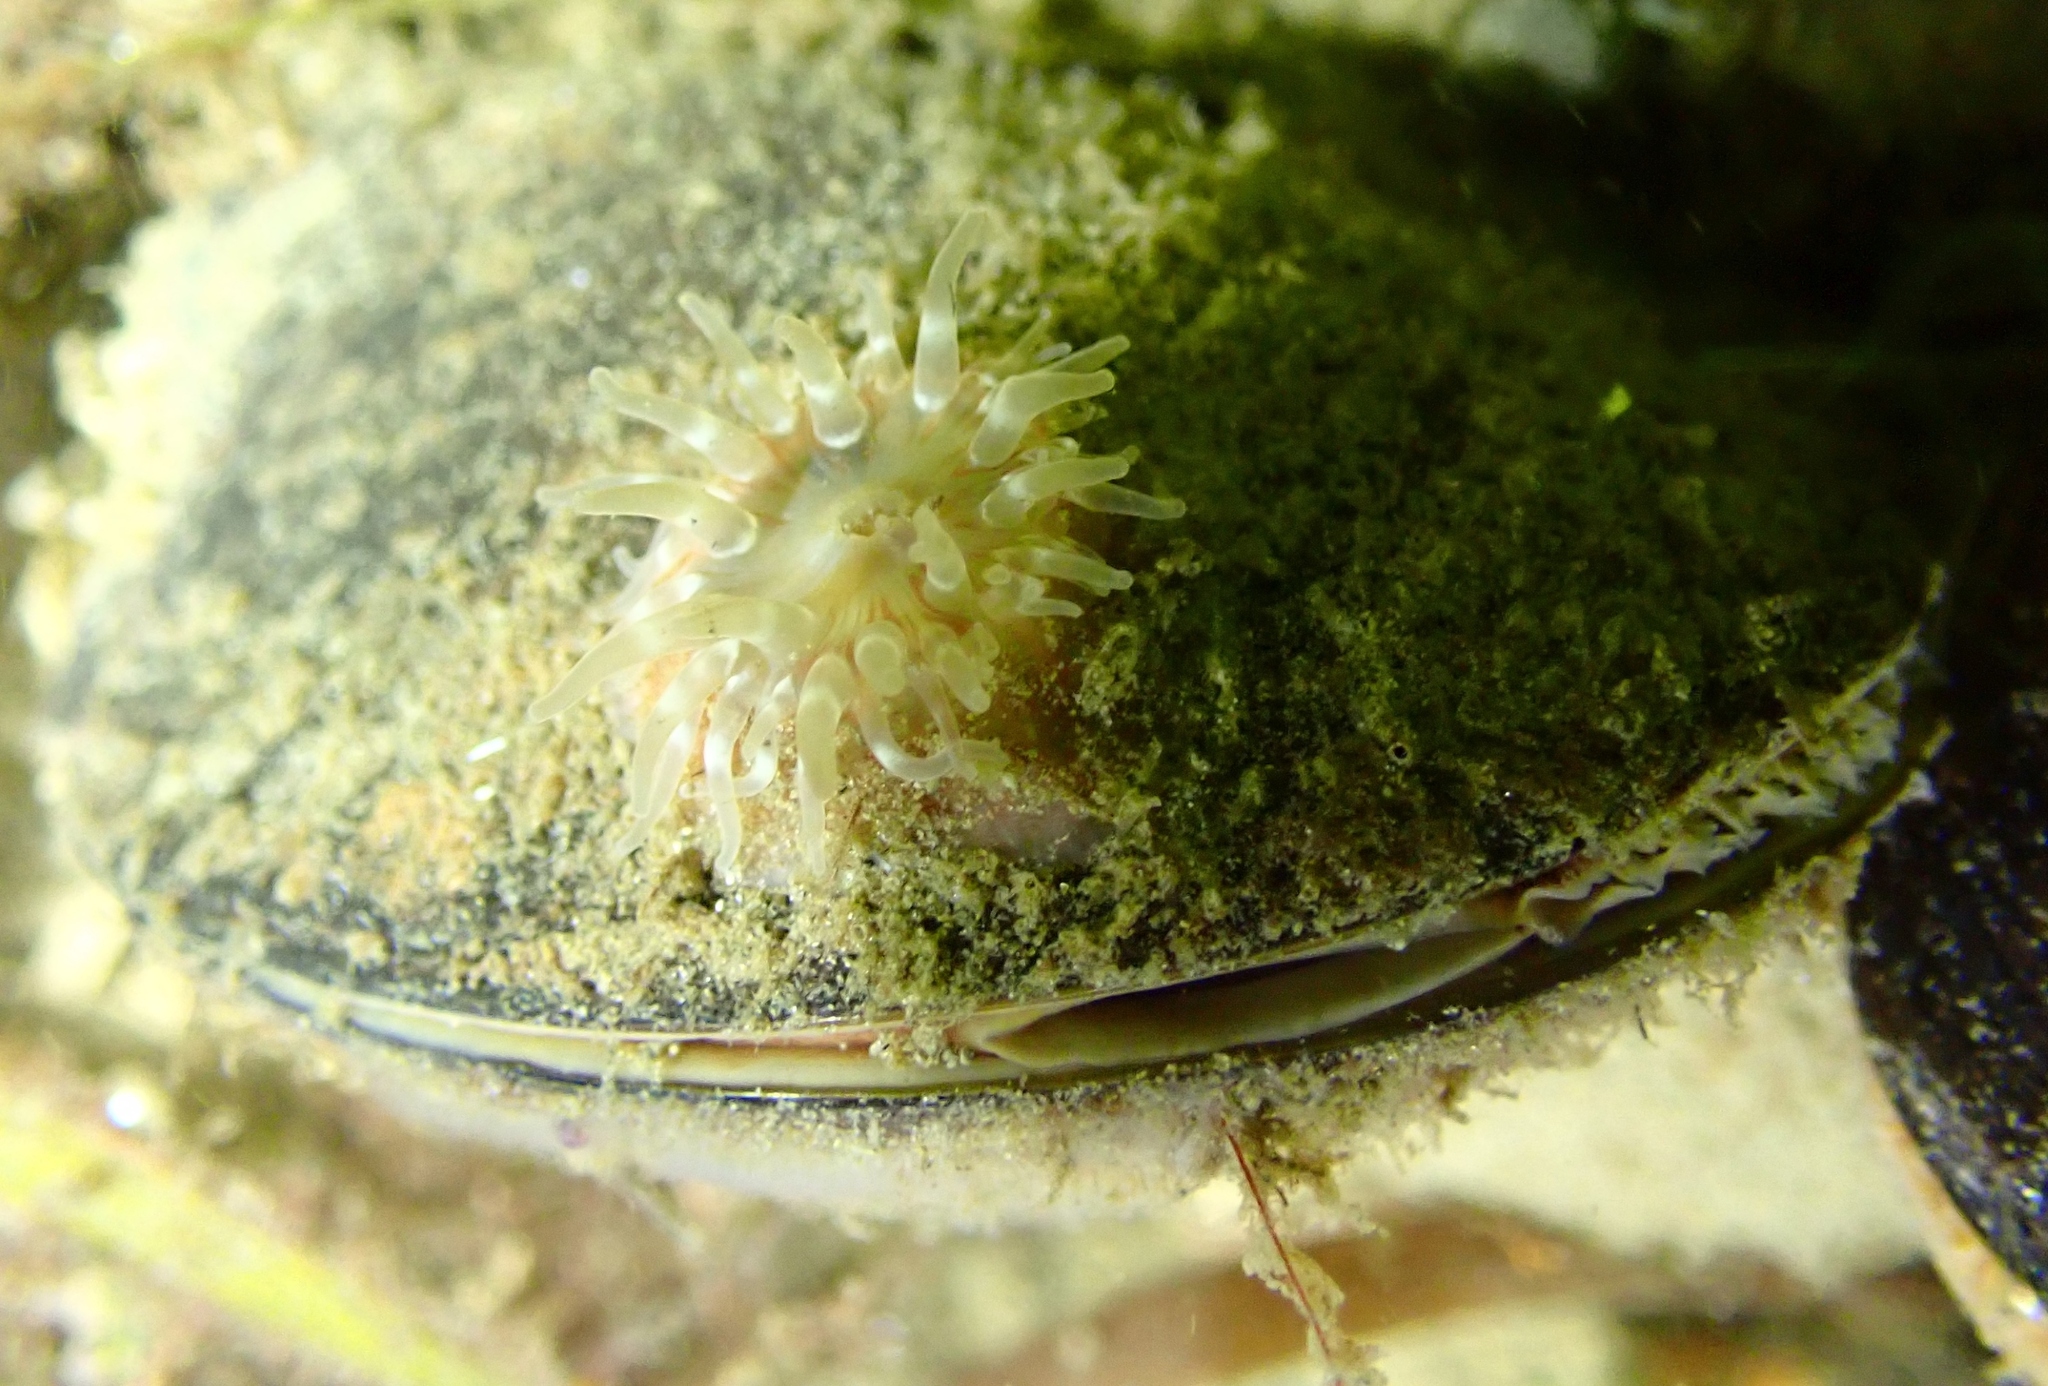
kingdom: Animalia
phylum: Cnidaria
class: Anthozoa
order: Actiniaria
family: Actiniidae
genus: Urticina
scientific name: Urticina felina
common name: Dahlia anemone
